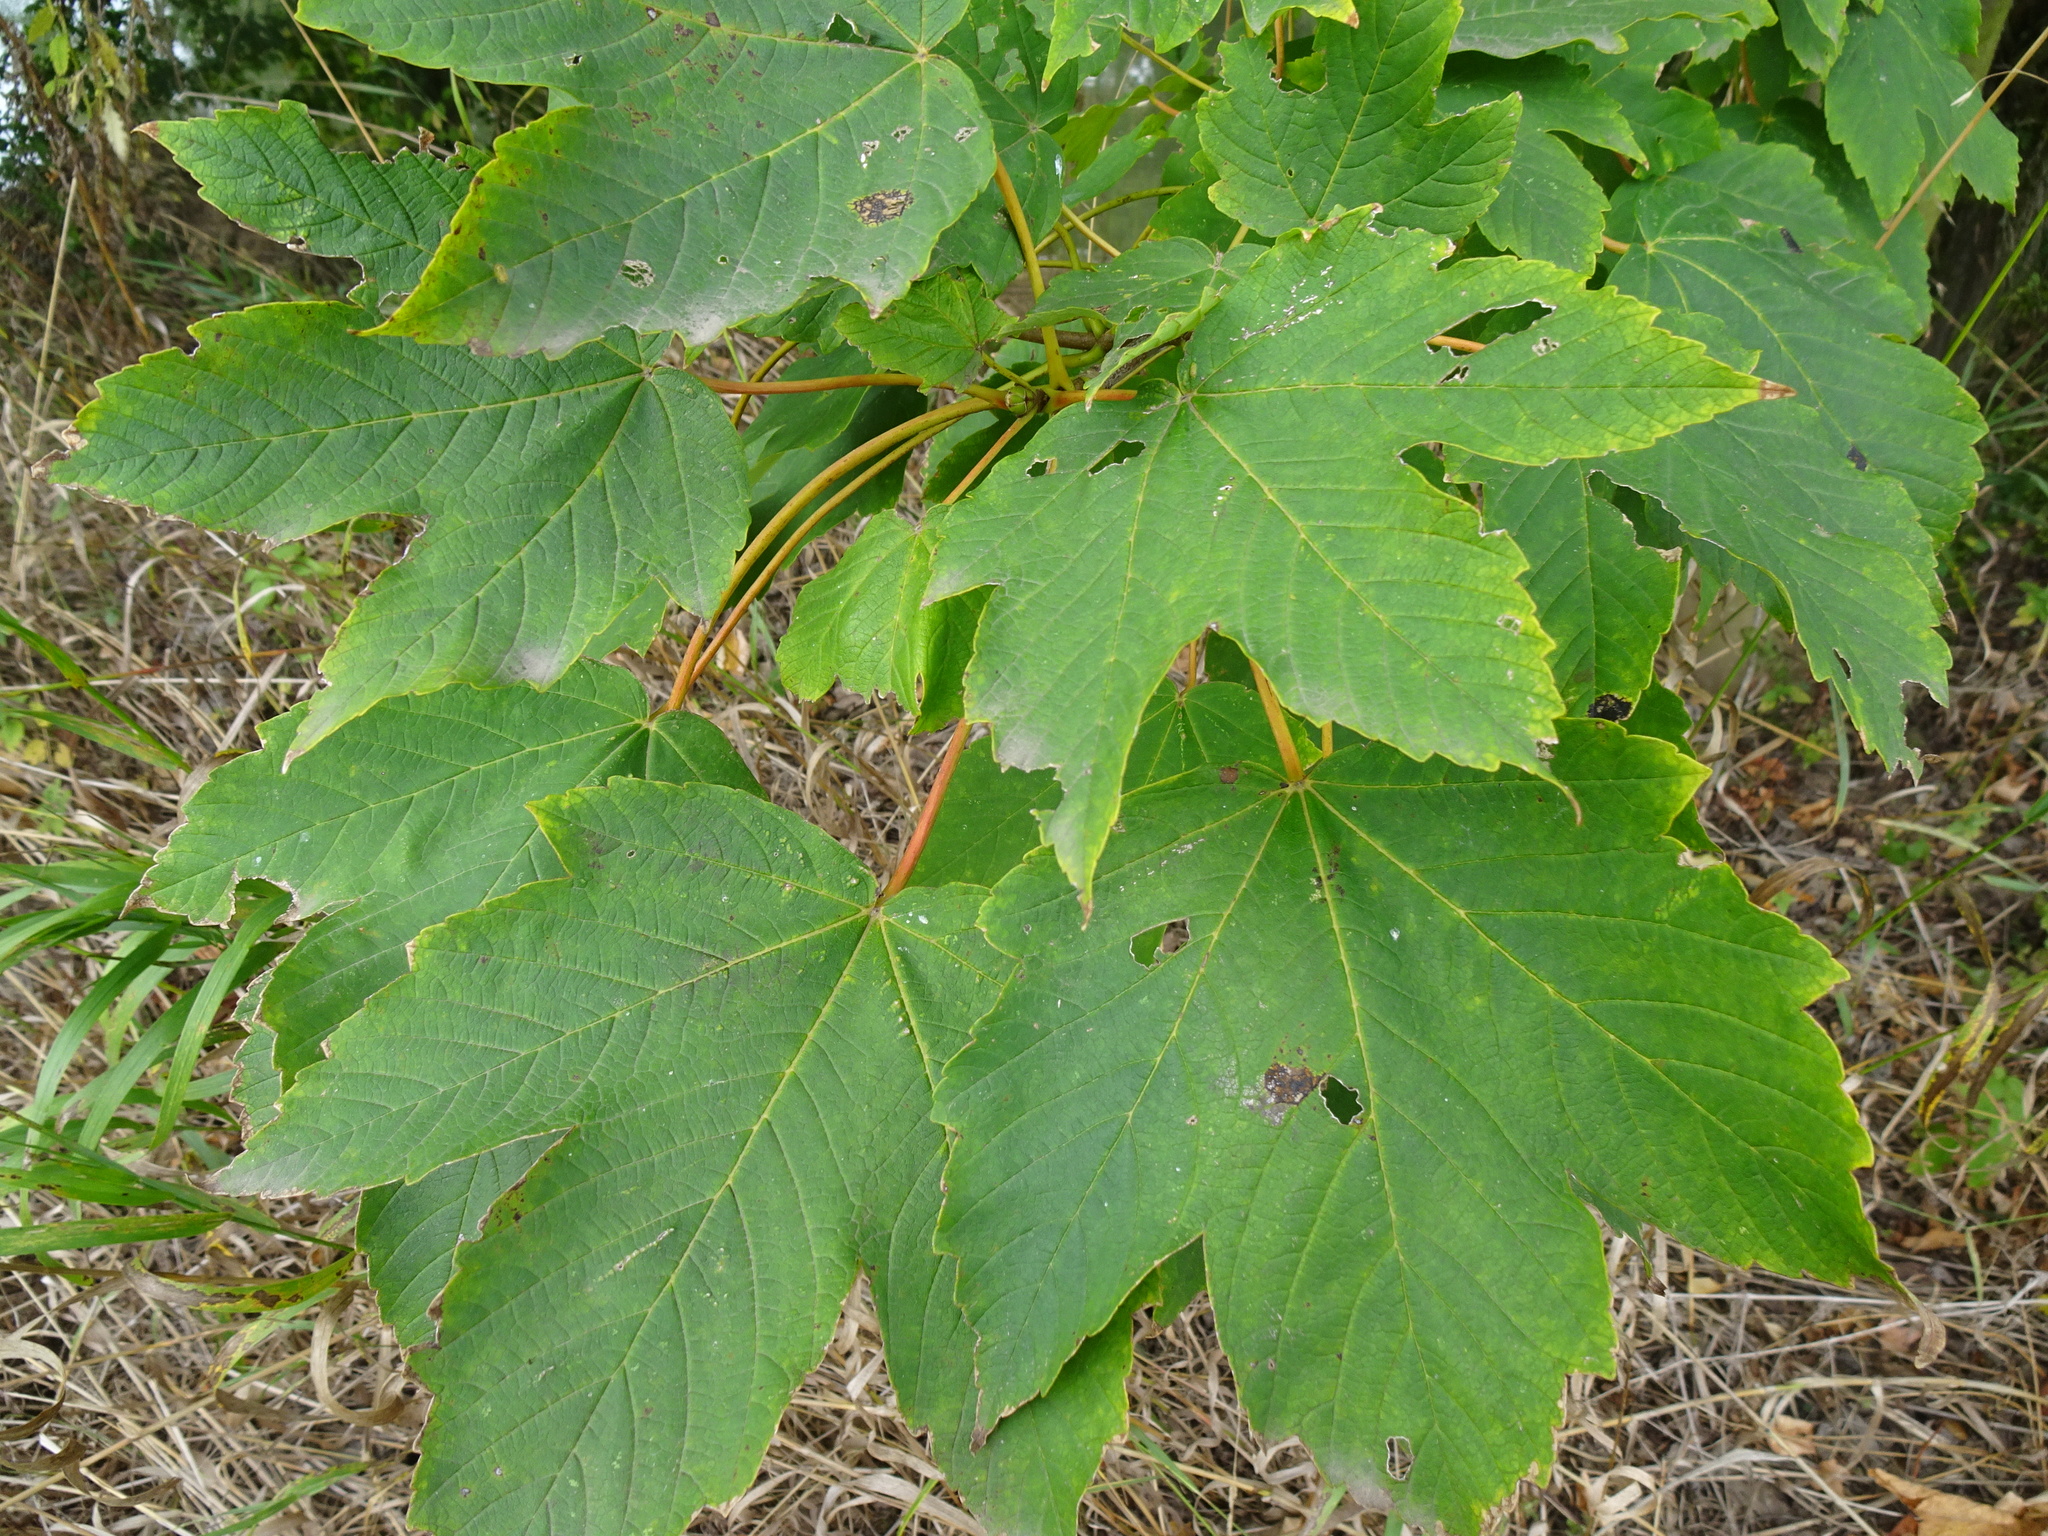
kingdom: Plantae
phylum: Tracheophyta
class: Magnoliopsida
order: Sapindales
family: Sapindaceae
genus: Acer
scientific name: Acer pseudoplatanus
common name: Sycamore
